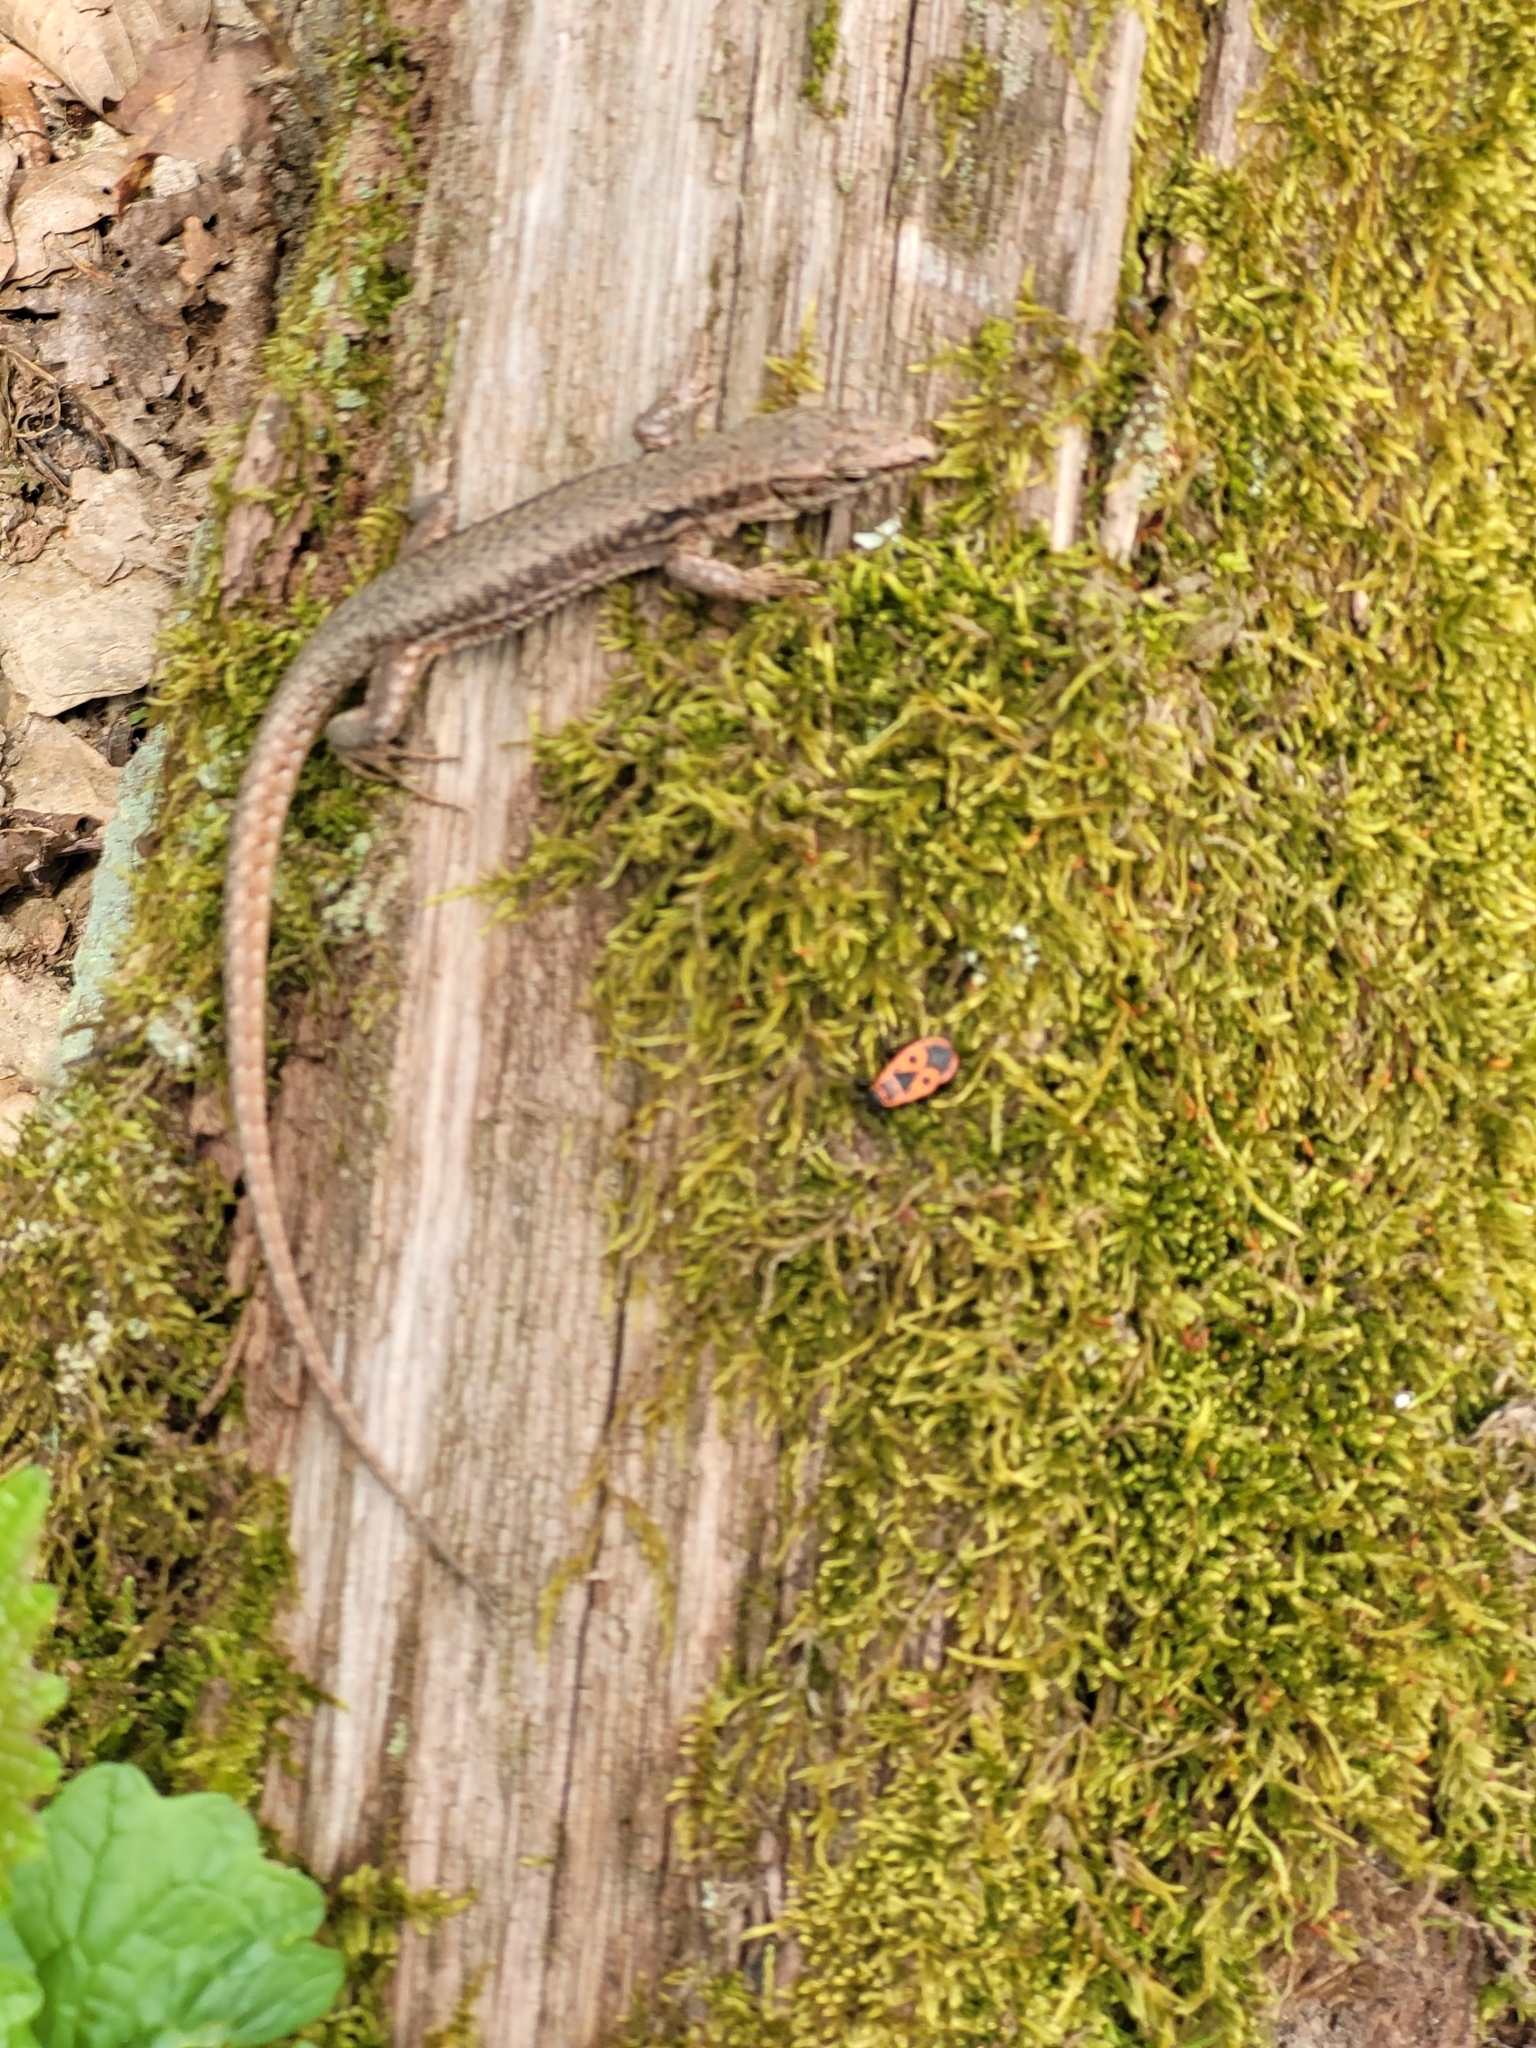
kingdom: Animalia
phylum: Chordata
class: Squamata
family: Lacertidae
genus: Podarcis
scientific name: Podarcis muralis
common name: Common wall lizard
